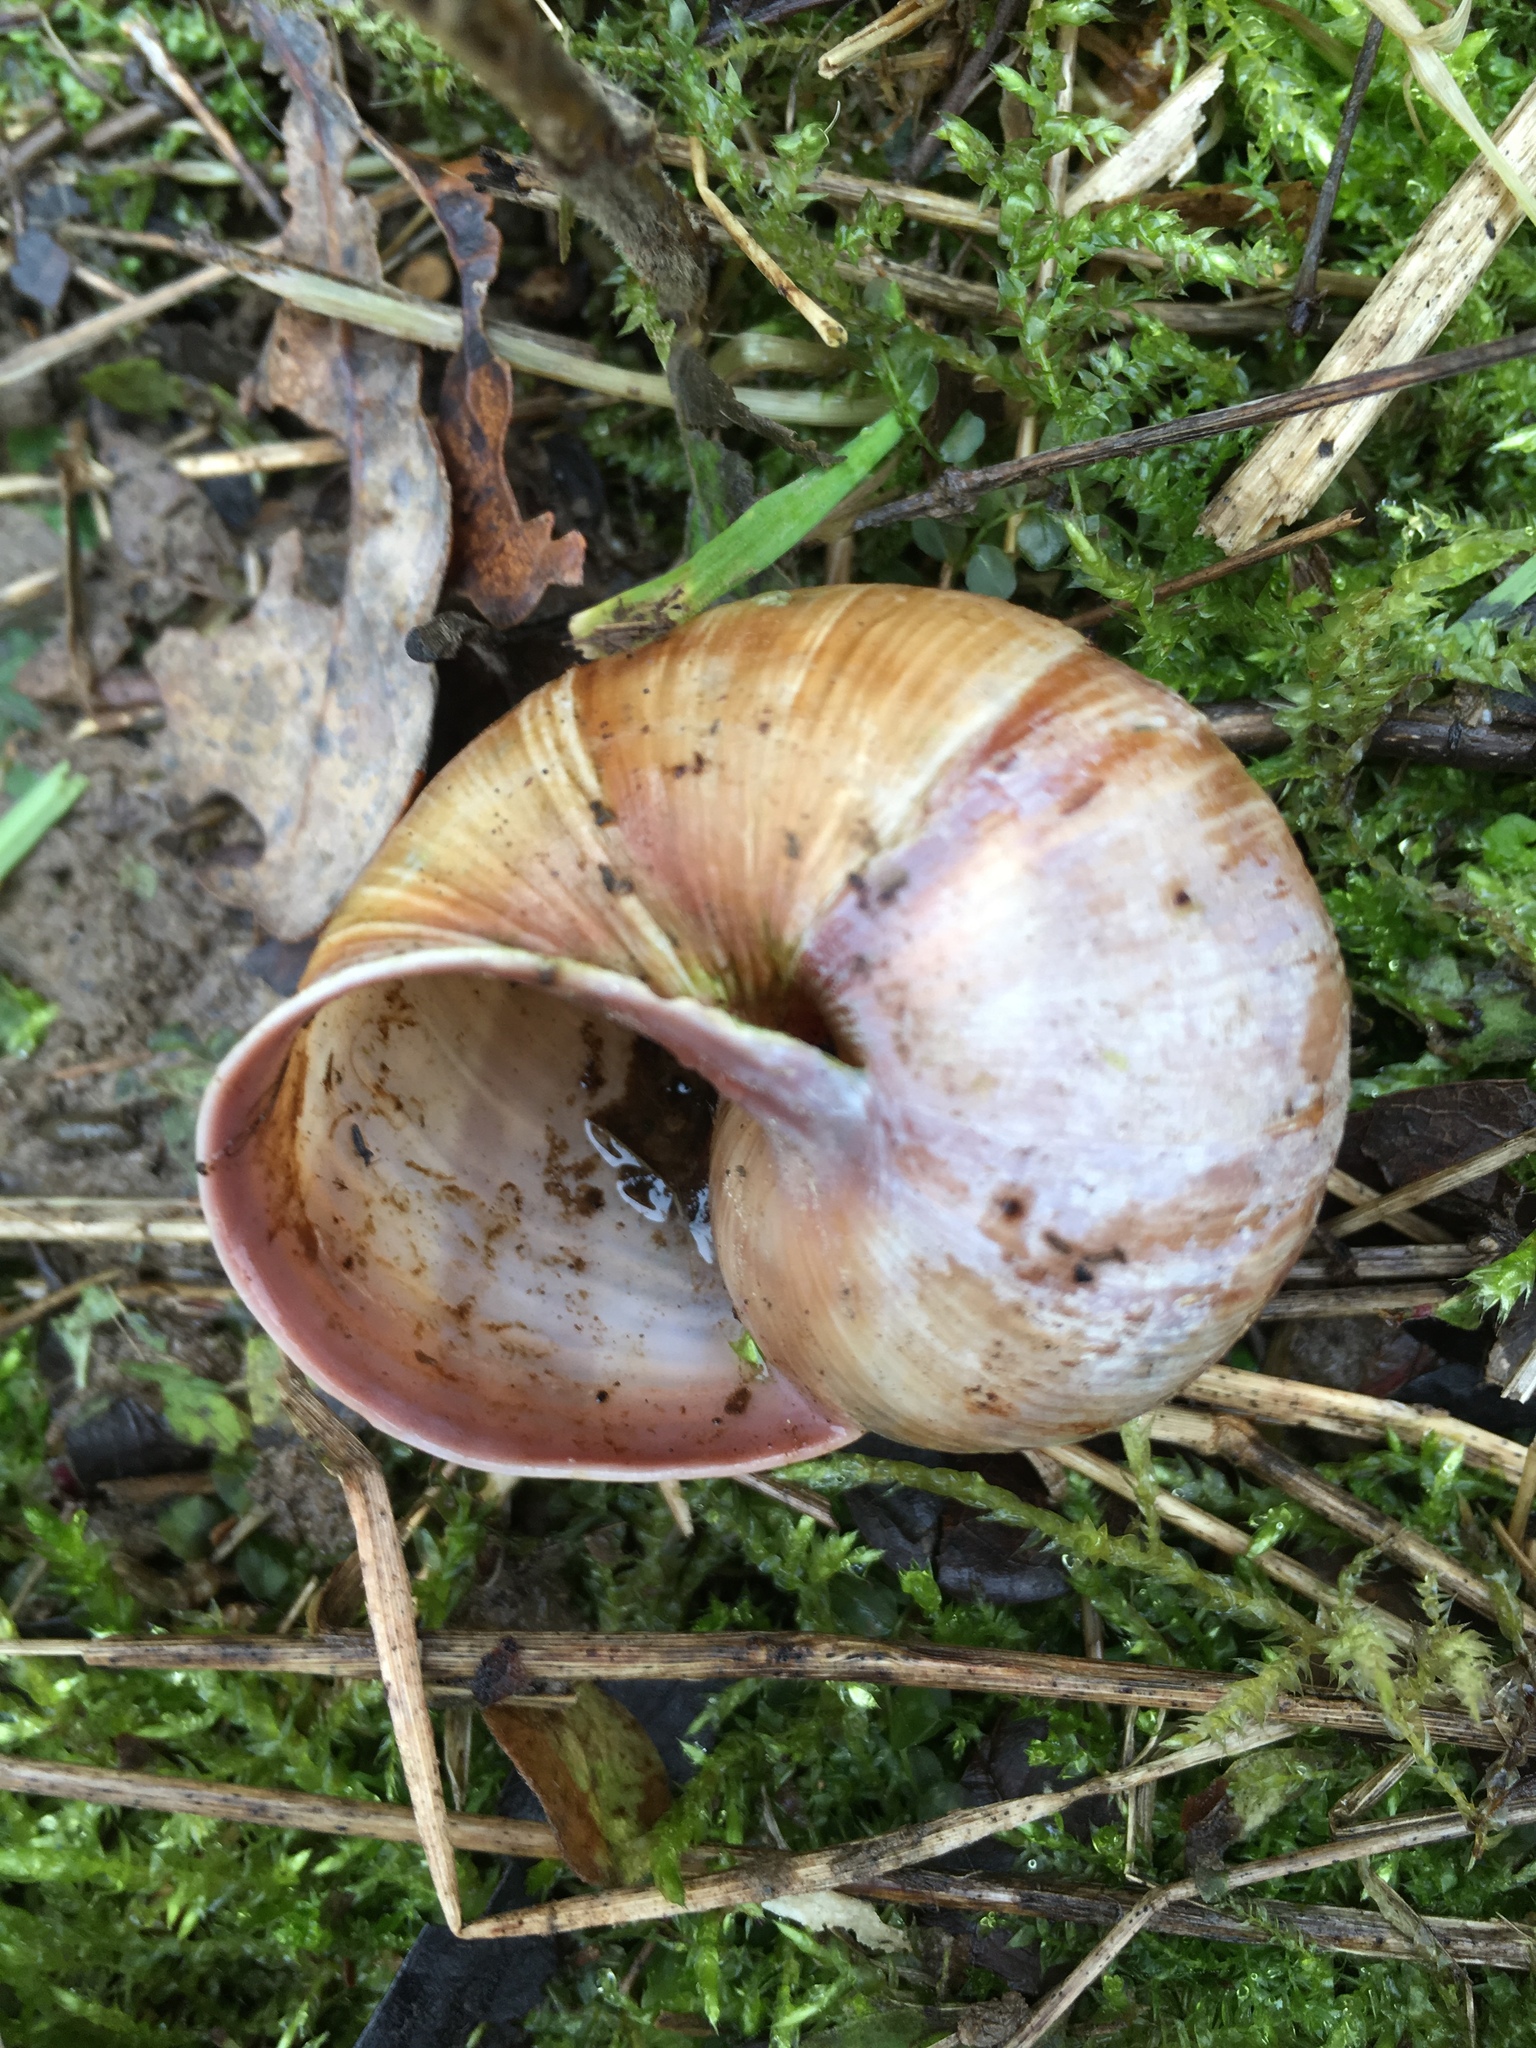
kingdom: Animalia
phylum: Mollusca
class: Gastropoda
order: Stylommatophora
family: Helicidae
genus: Helix
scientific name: Helix pomatia
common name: Roman snail
